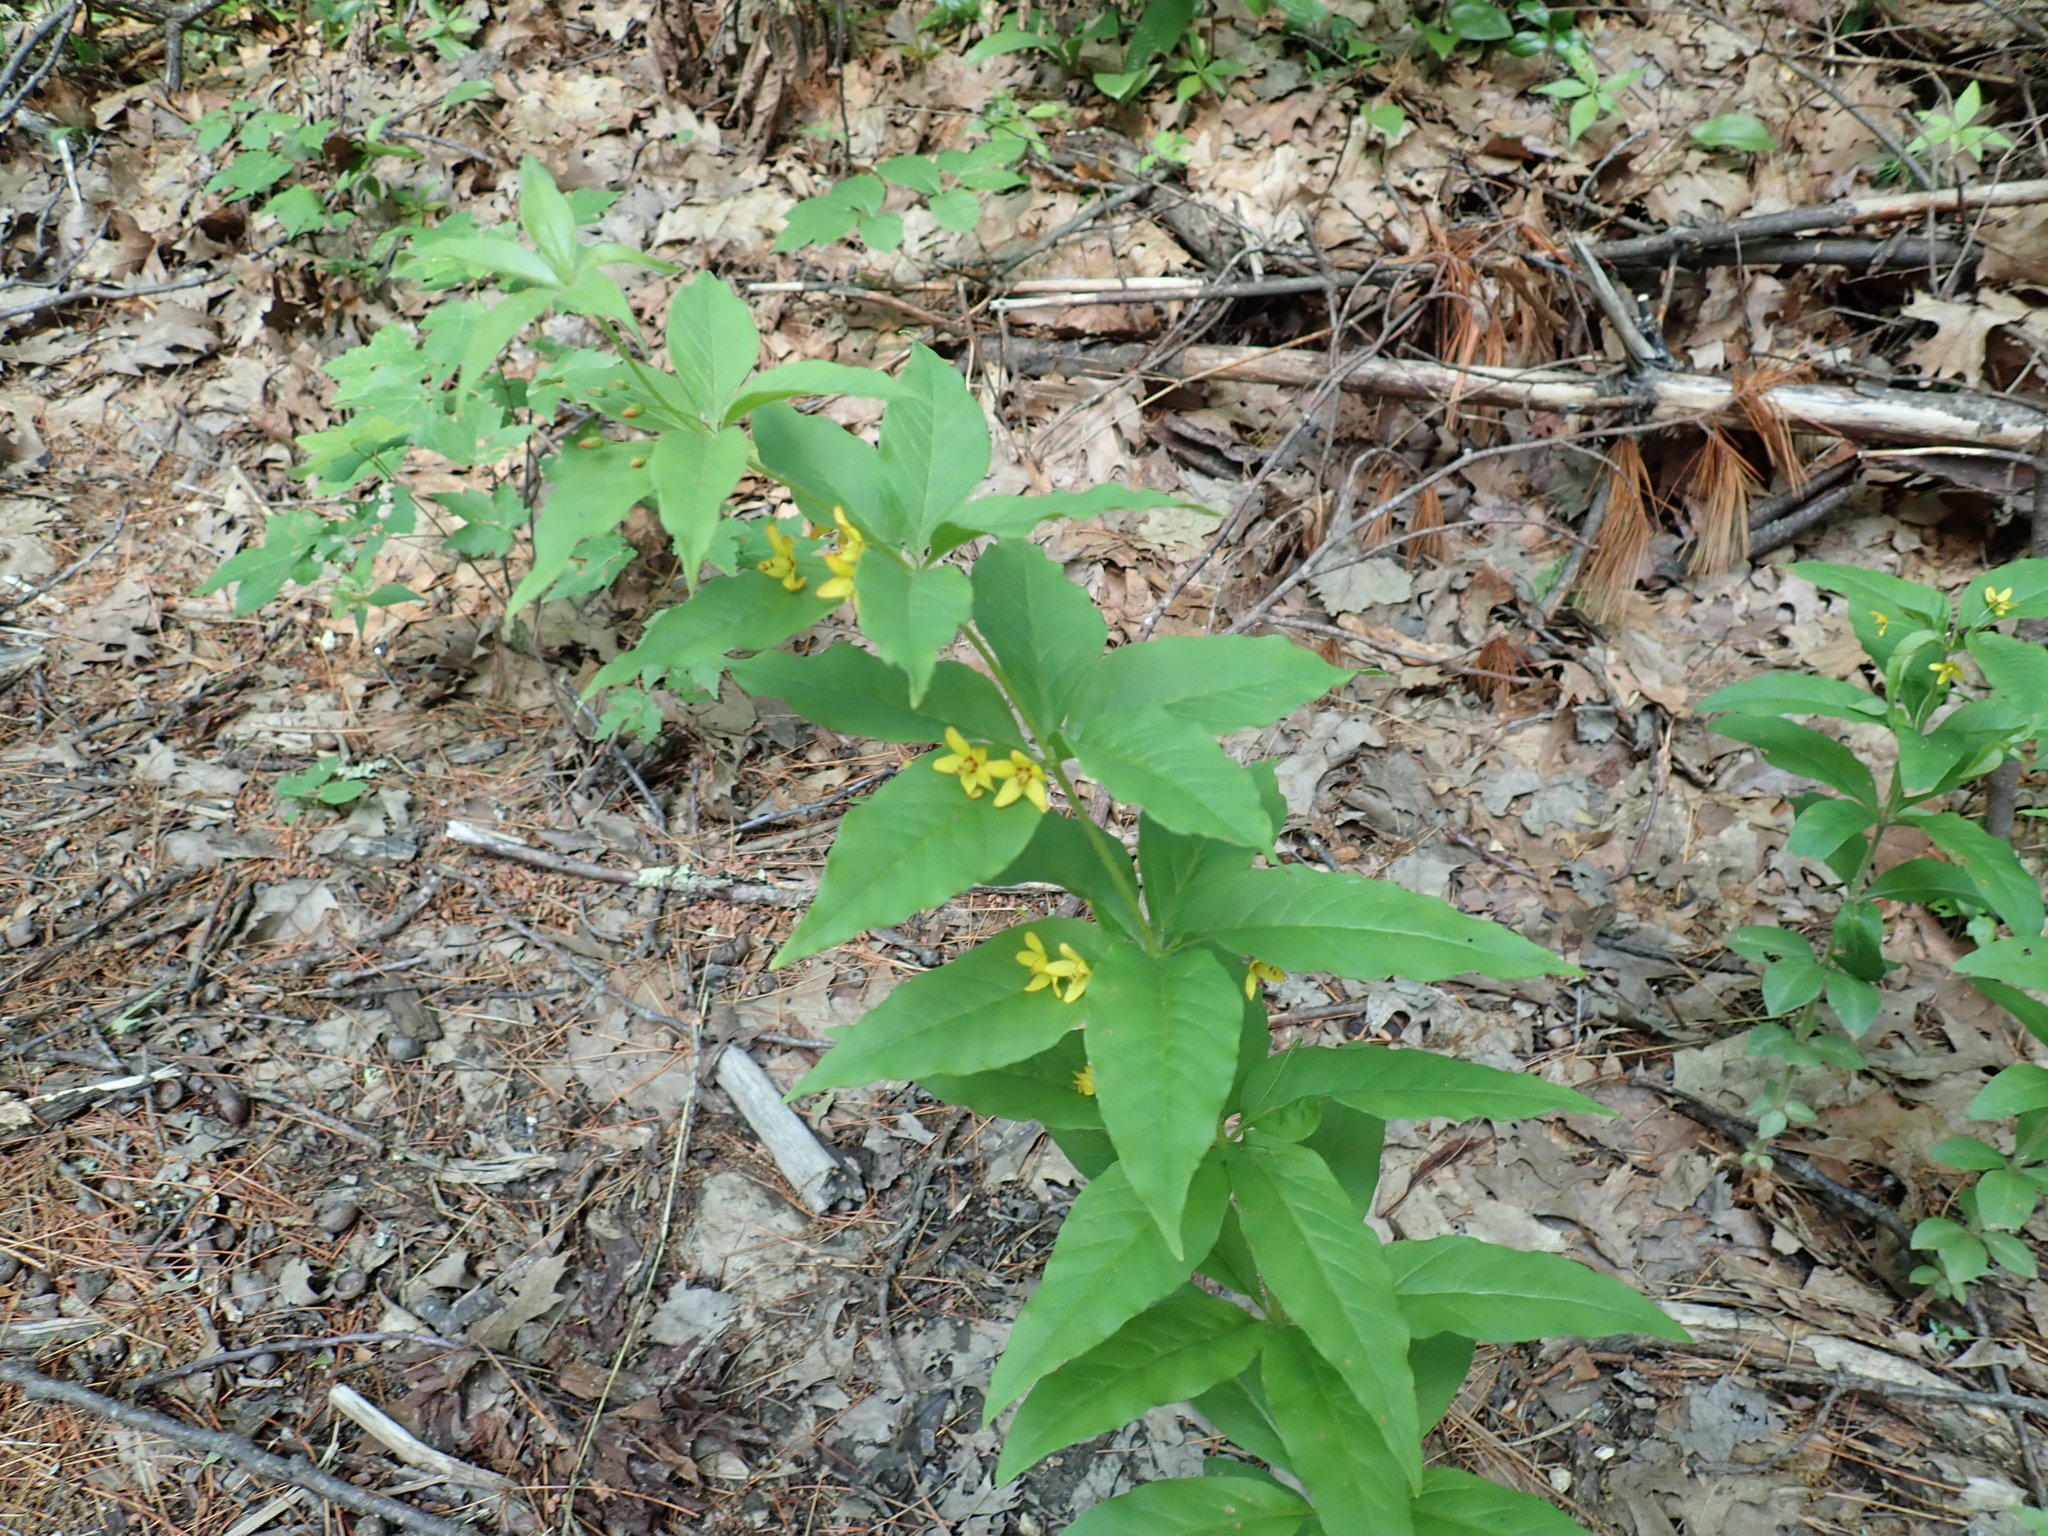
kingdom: Plantae
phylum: Tracheophyta
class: Magnoliopsida
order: Ericales
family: Primulaceae
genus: Lysimachia
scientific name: Lysimachia quadrifolia
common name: Whorled loosestrife
